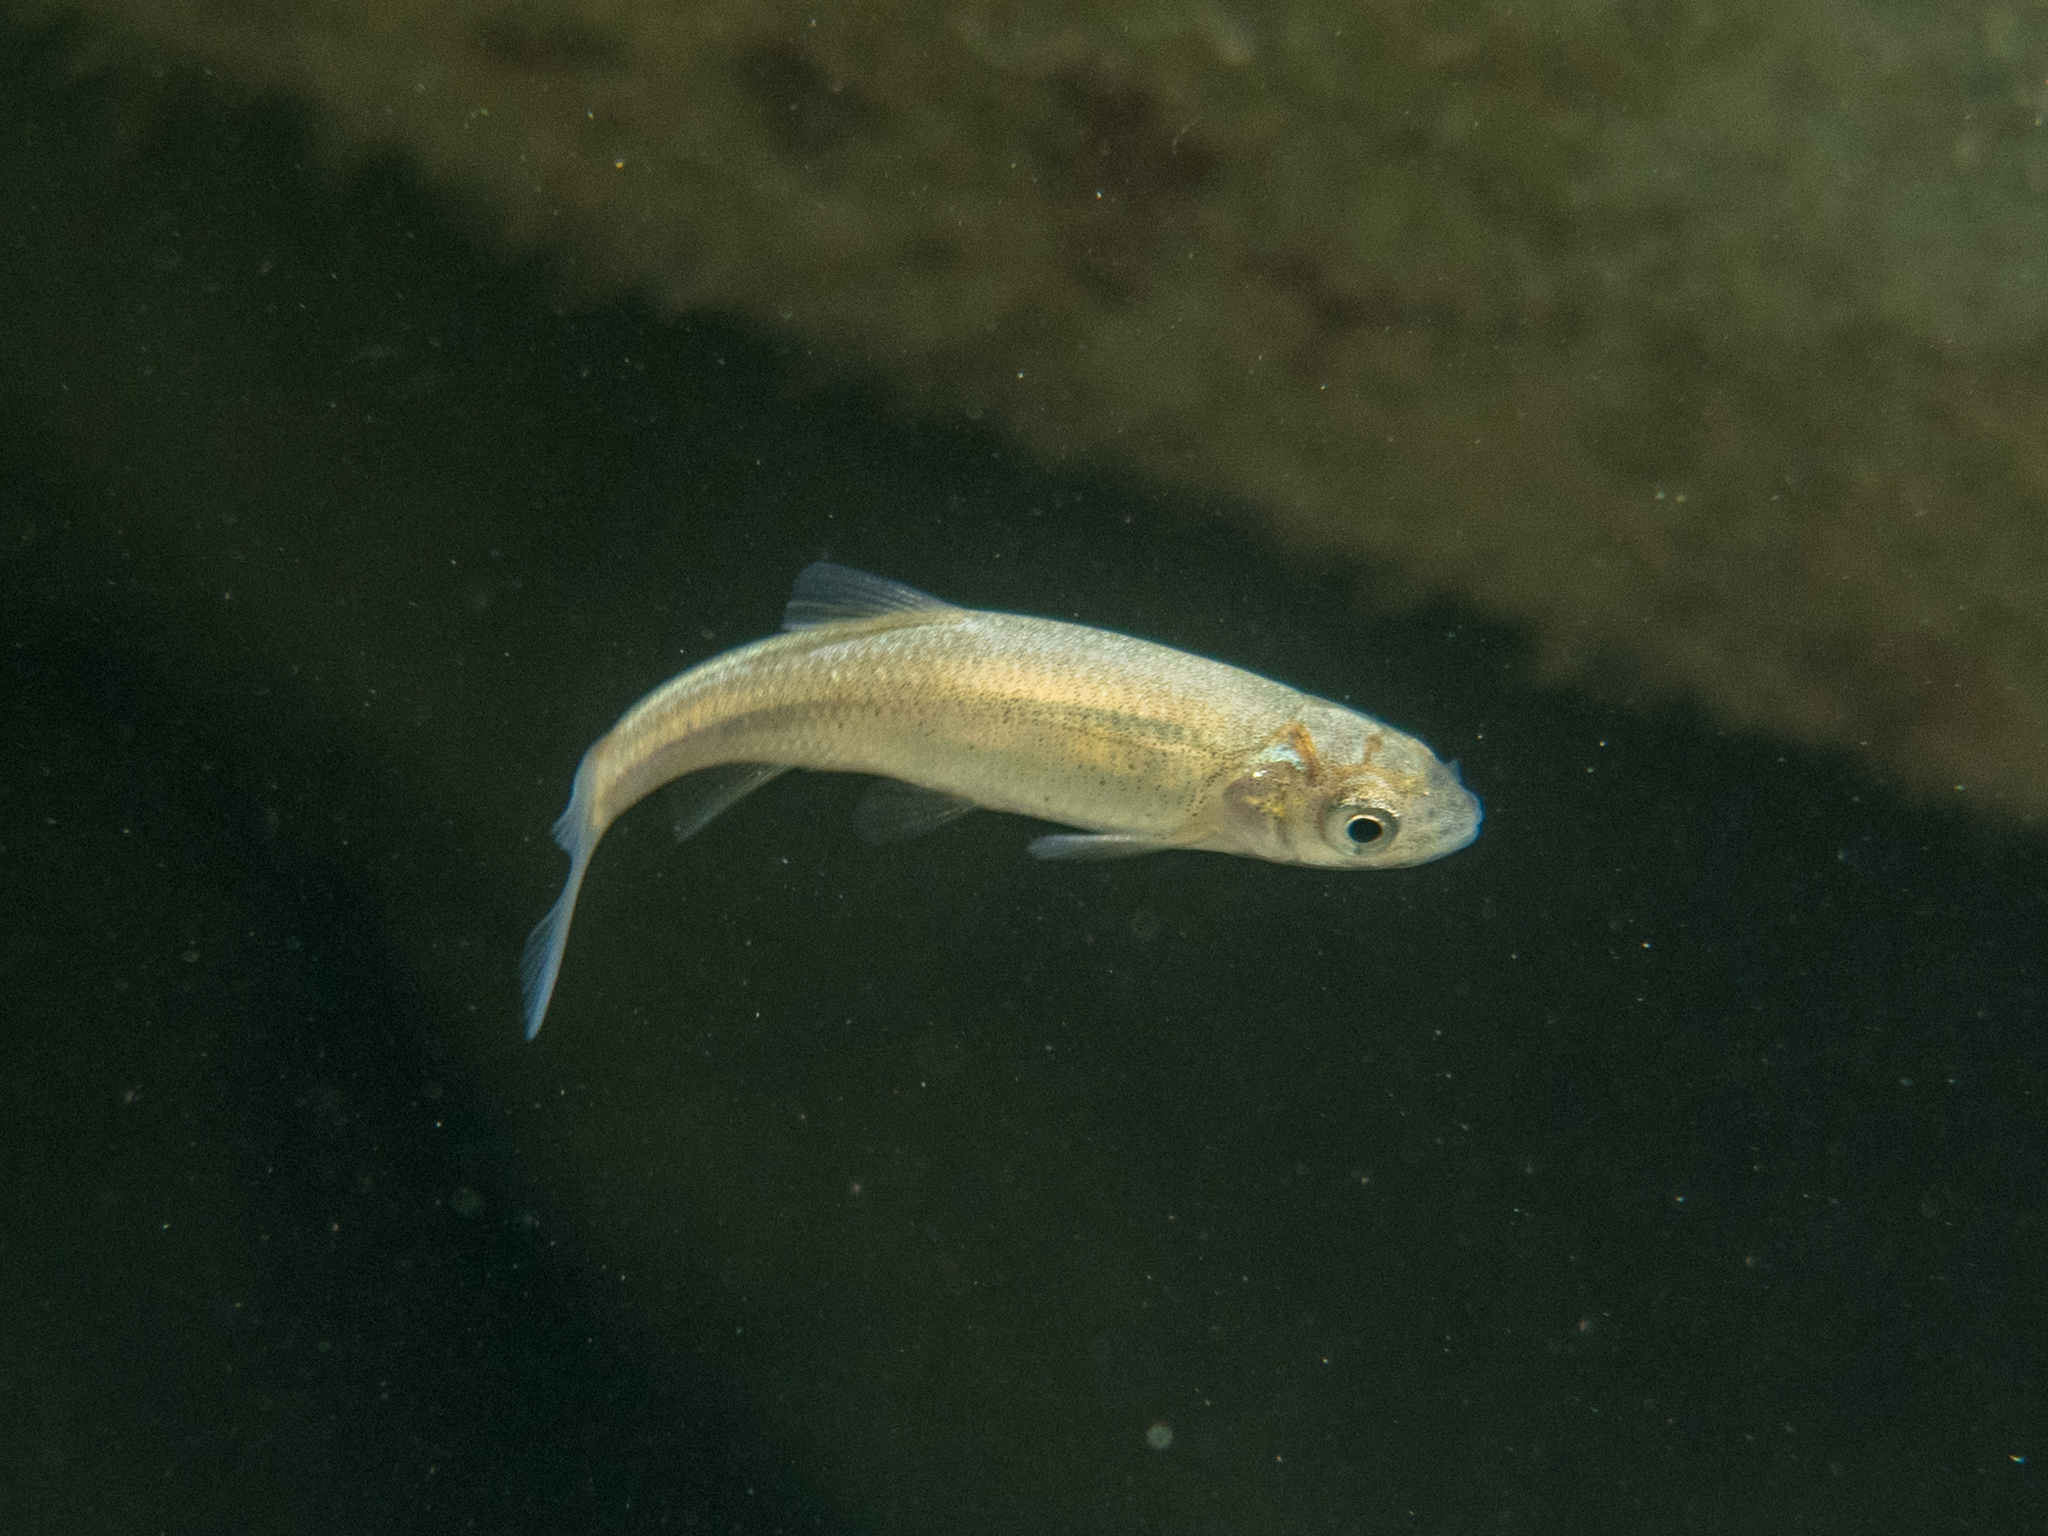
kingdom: Animalia
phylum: Chordata
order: Cypriniformes
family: Cyprinidae
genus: Squalius
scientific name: Squalius squalus
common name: Italian chub
